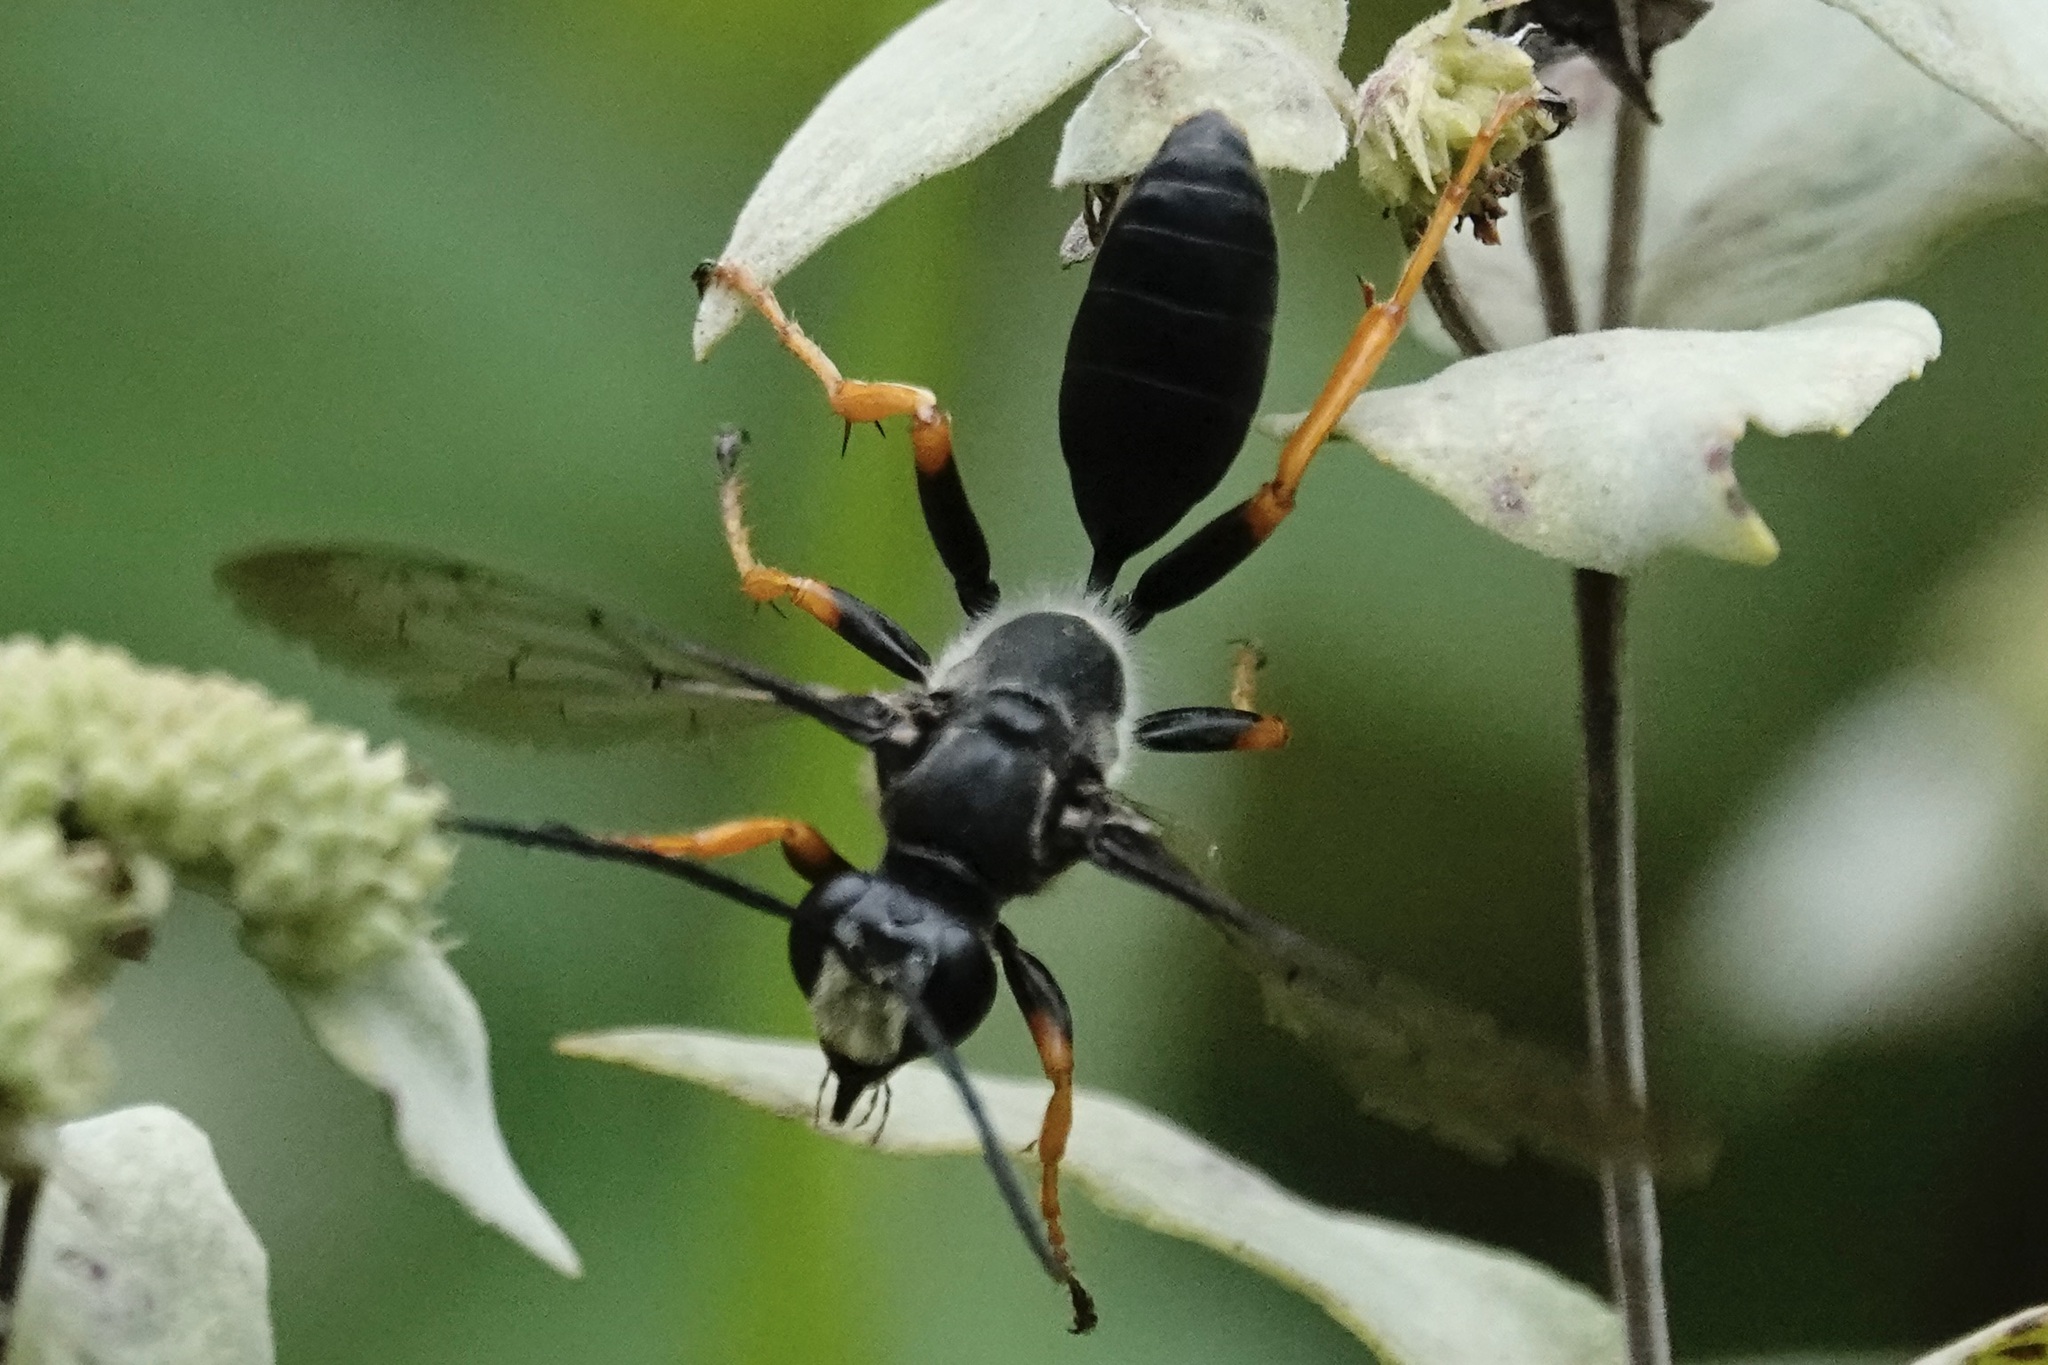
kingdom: Animalia
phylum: Arthropoda
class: Insecta
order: Hymenoptera
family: Sphecidae
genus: Sphex
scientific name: Sphex nudus
